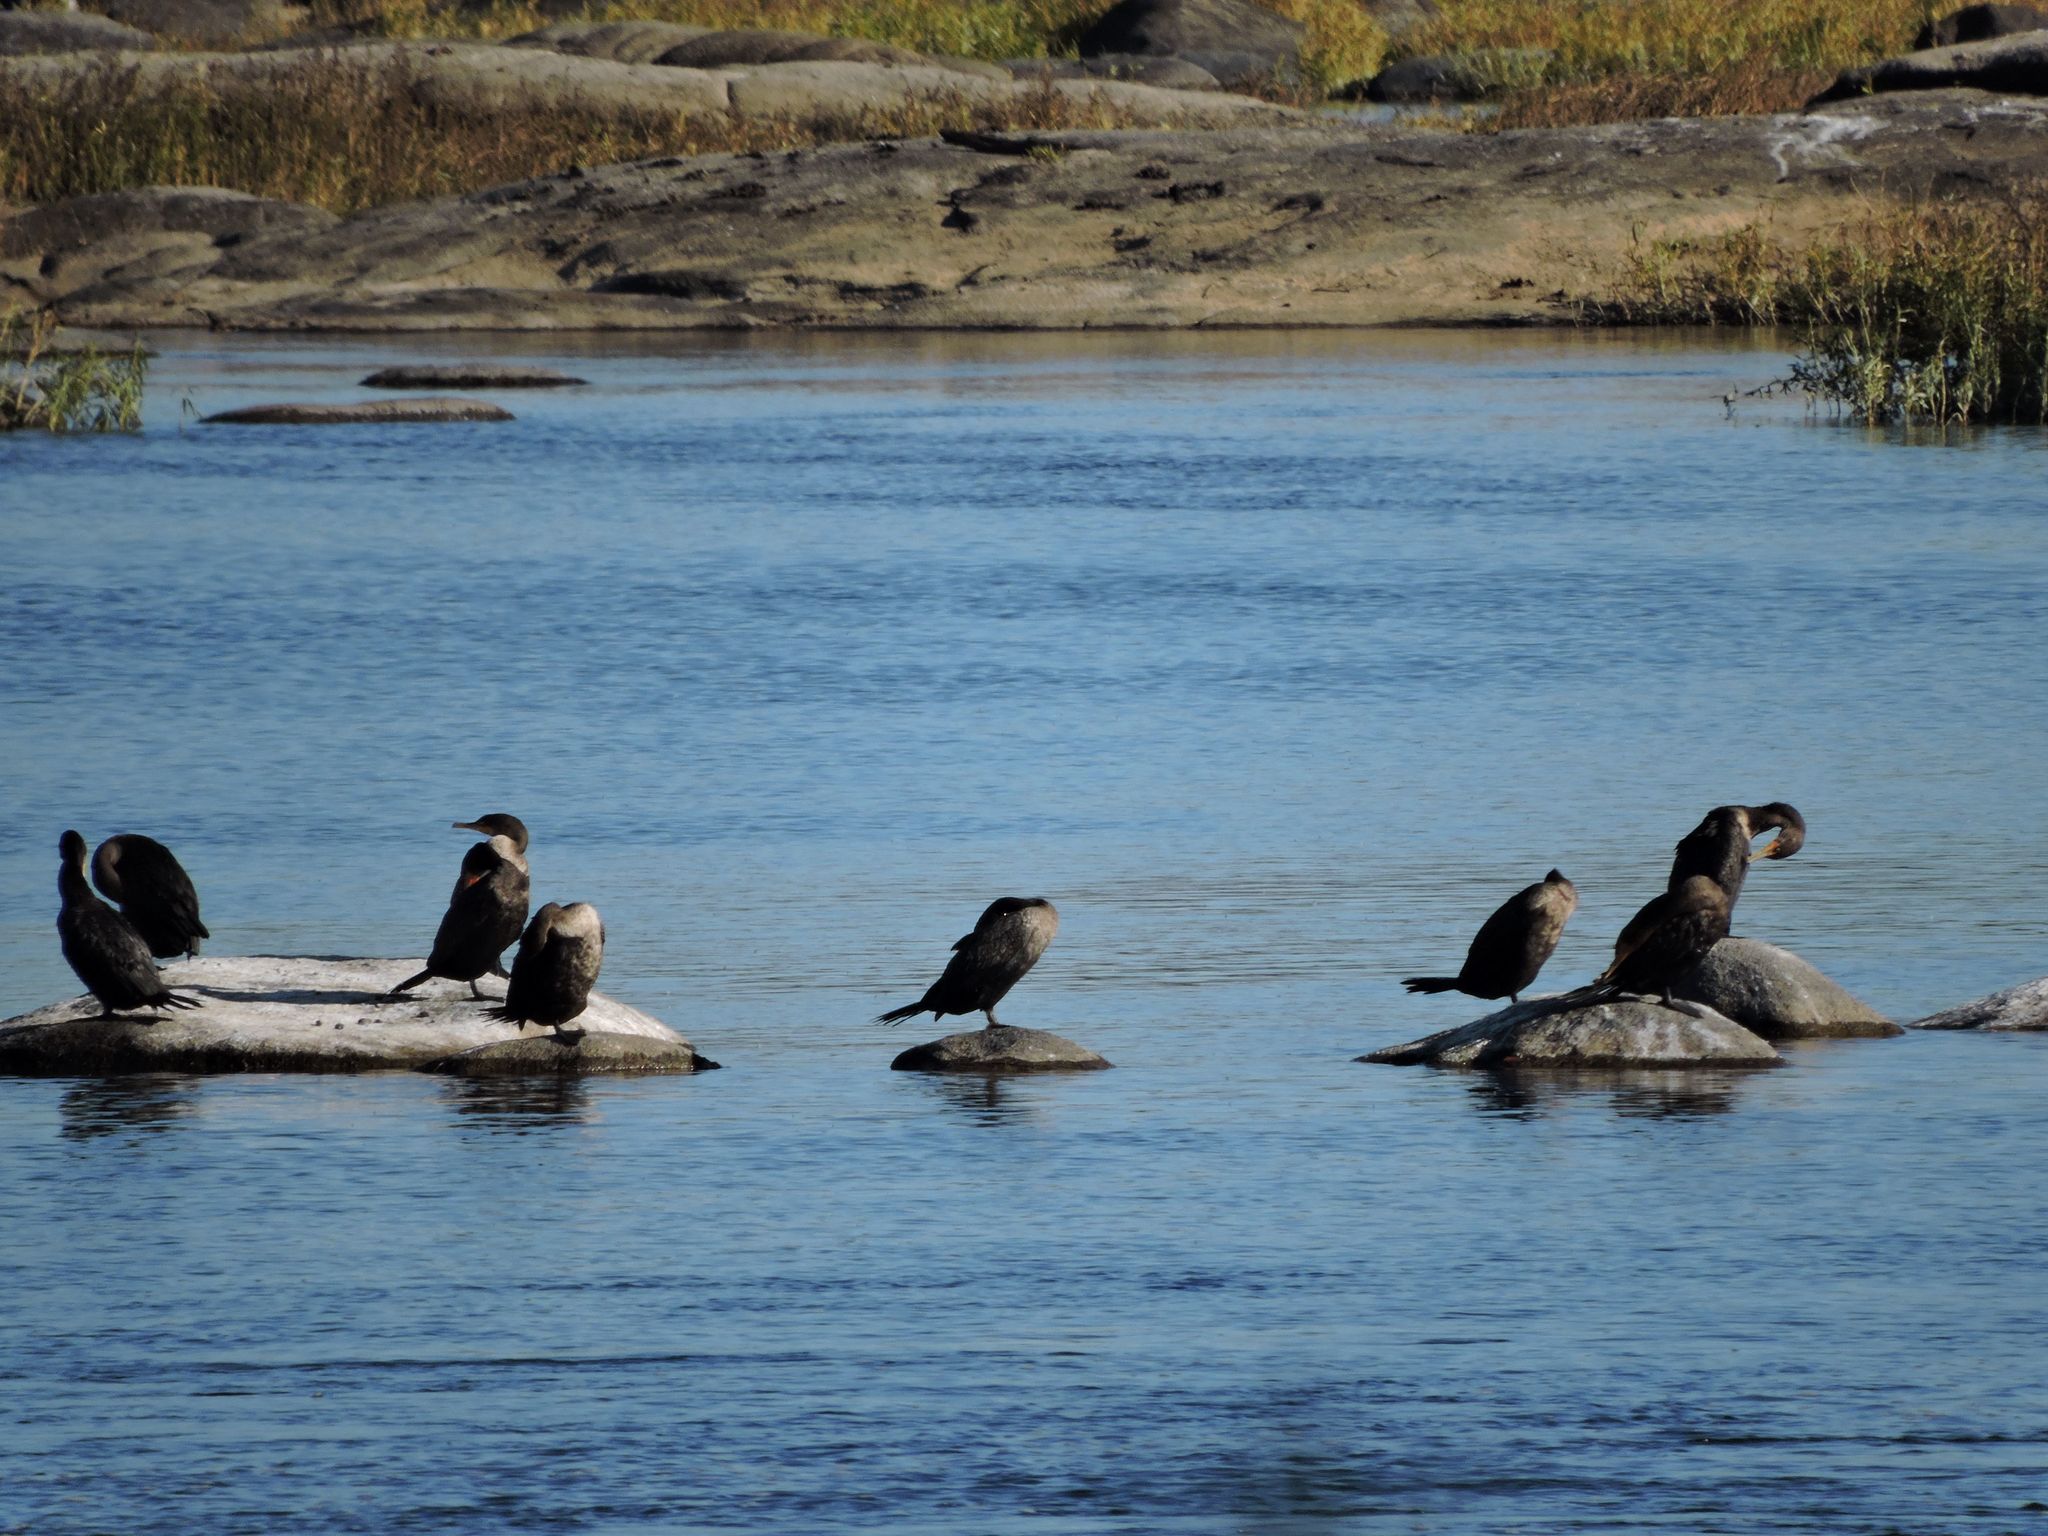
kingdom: Animalia
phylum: Chordata
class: Aves
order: Suliformes
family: Phalacrocoracidae
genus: Phalacrocorax
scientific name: Phalacrocorax auritus
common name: Double-crested cormorant
